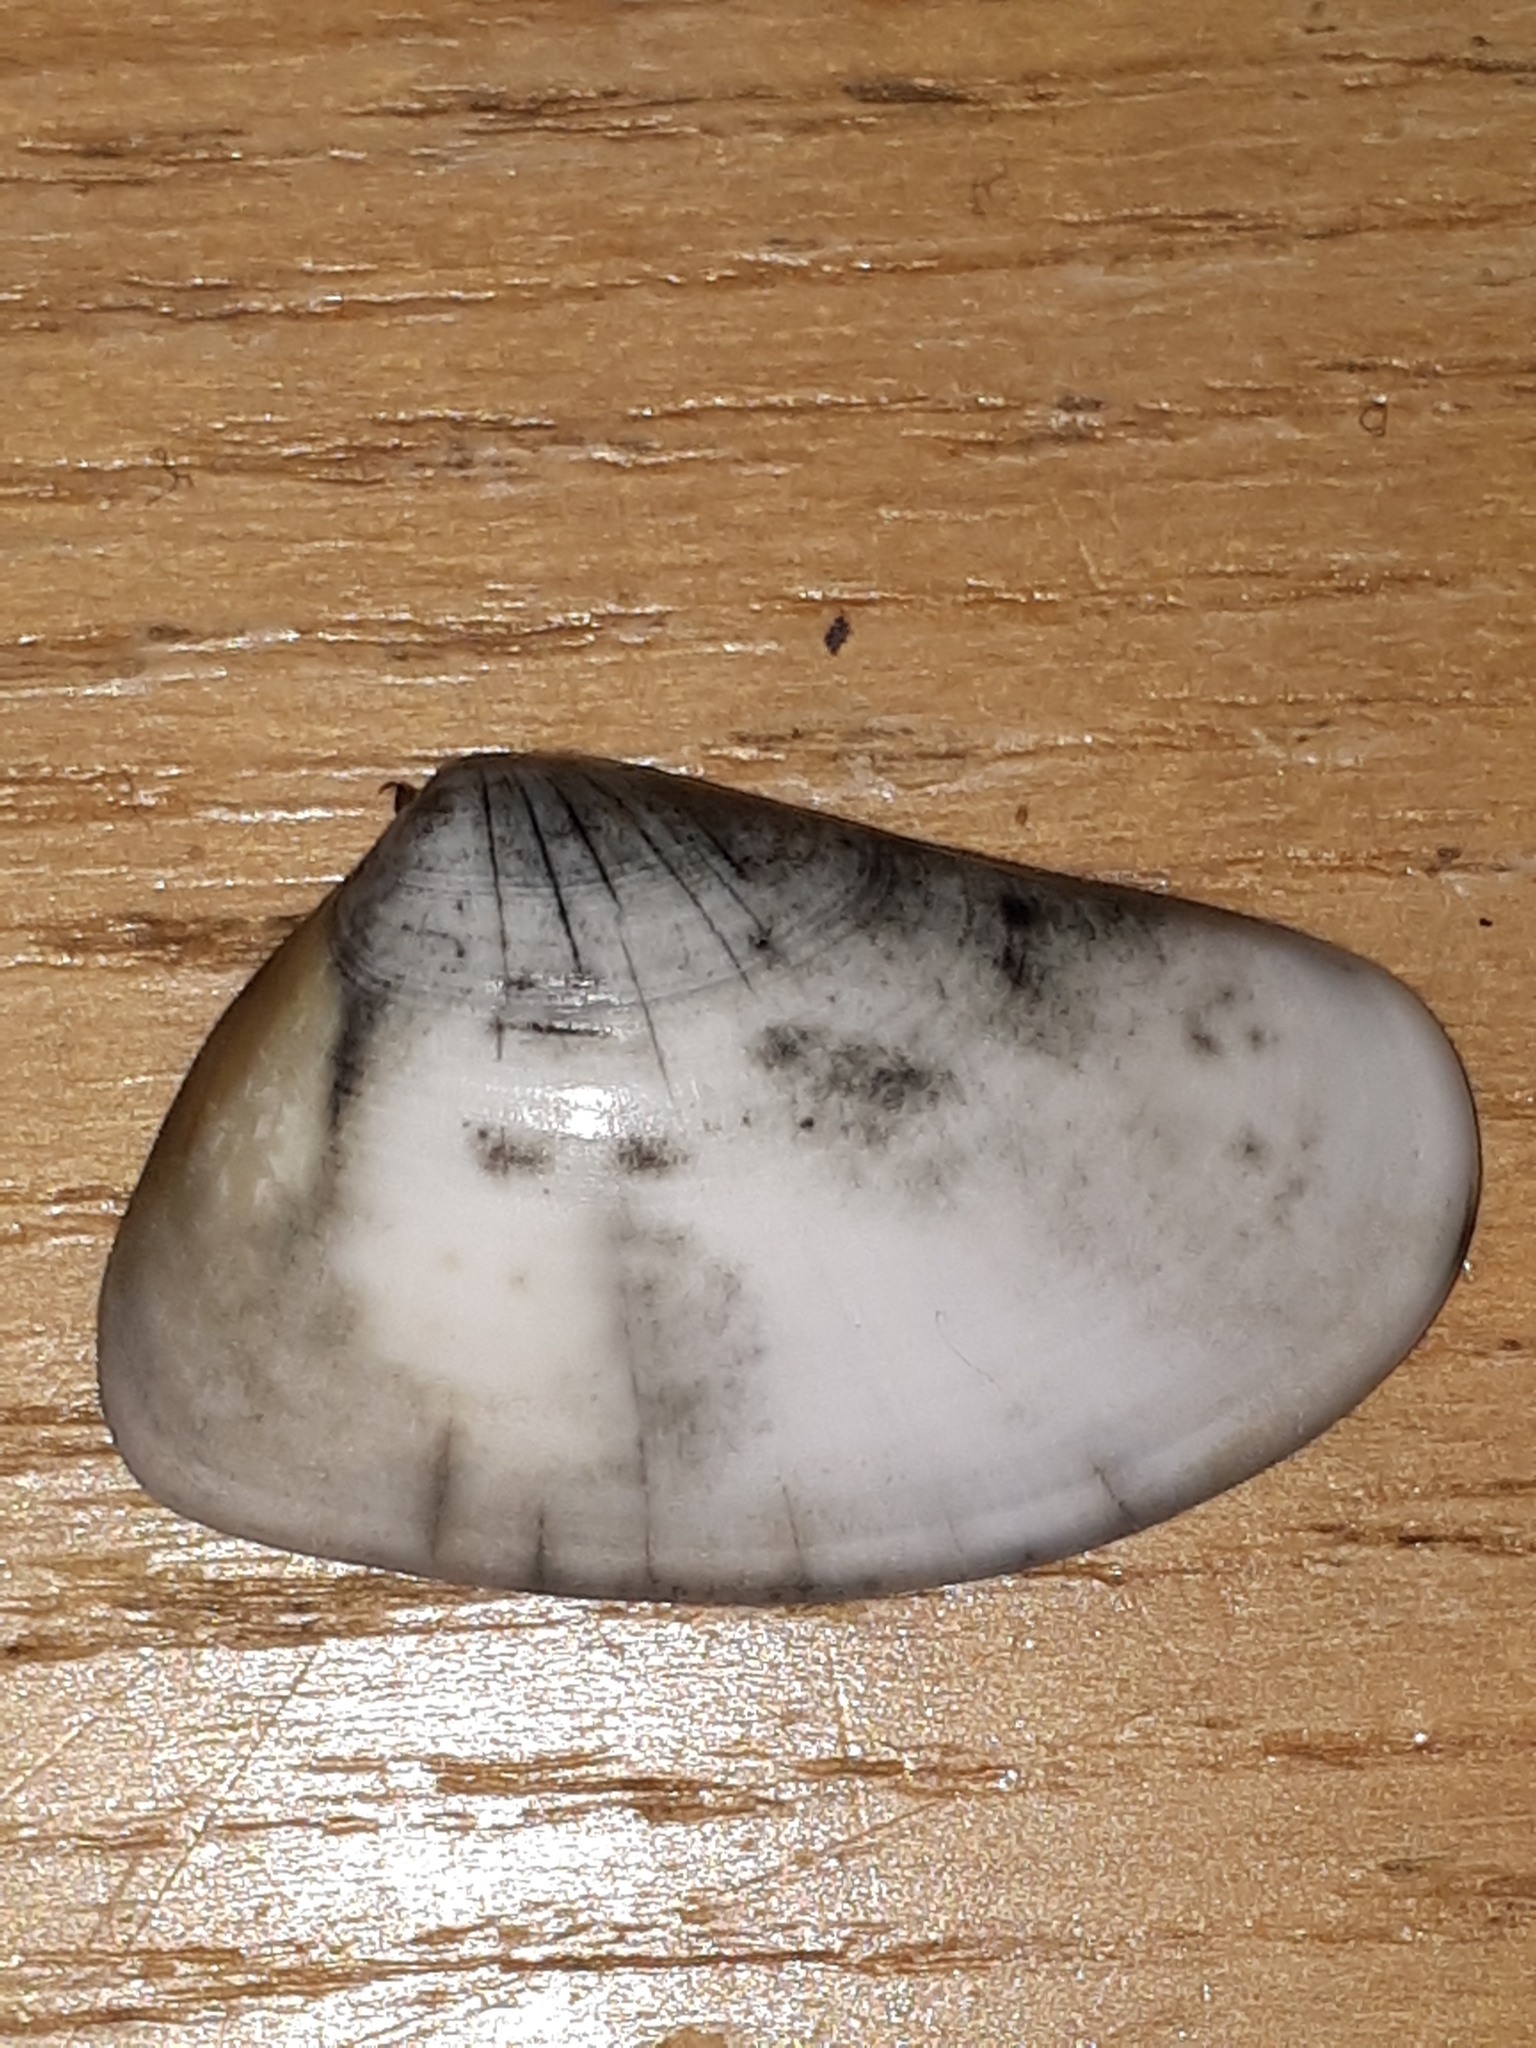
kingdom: Animalia
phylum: Mollusca
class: Bivalvia
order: Cardiida
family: Donacidae
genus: Donax
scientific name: Donax trunculus
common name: Truncate donax
